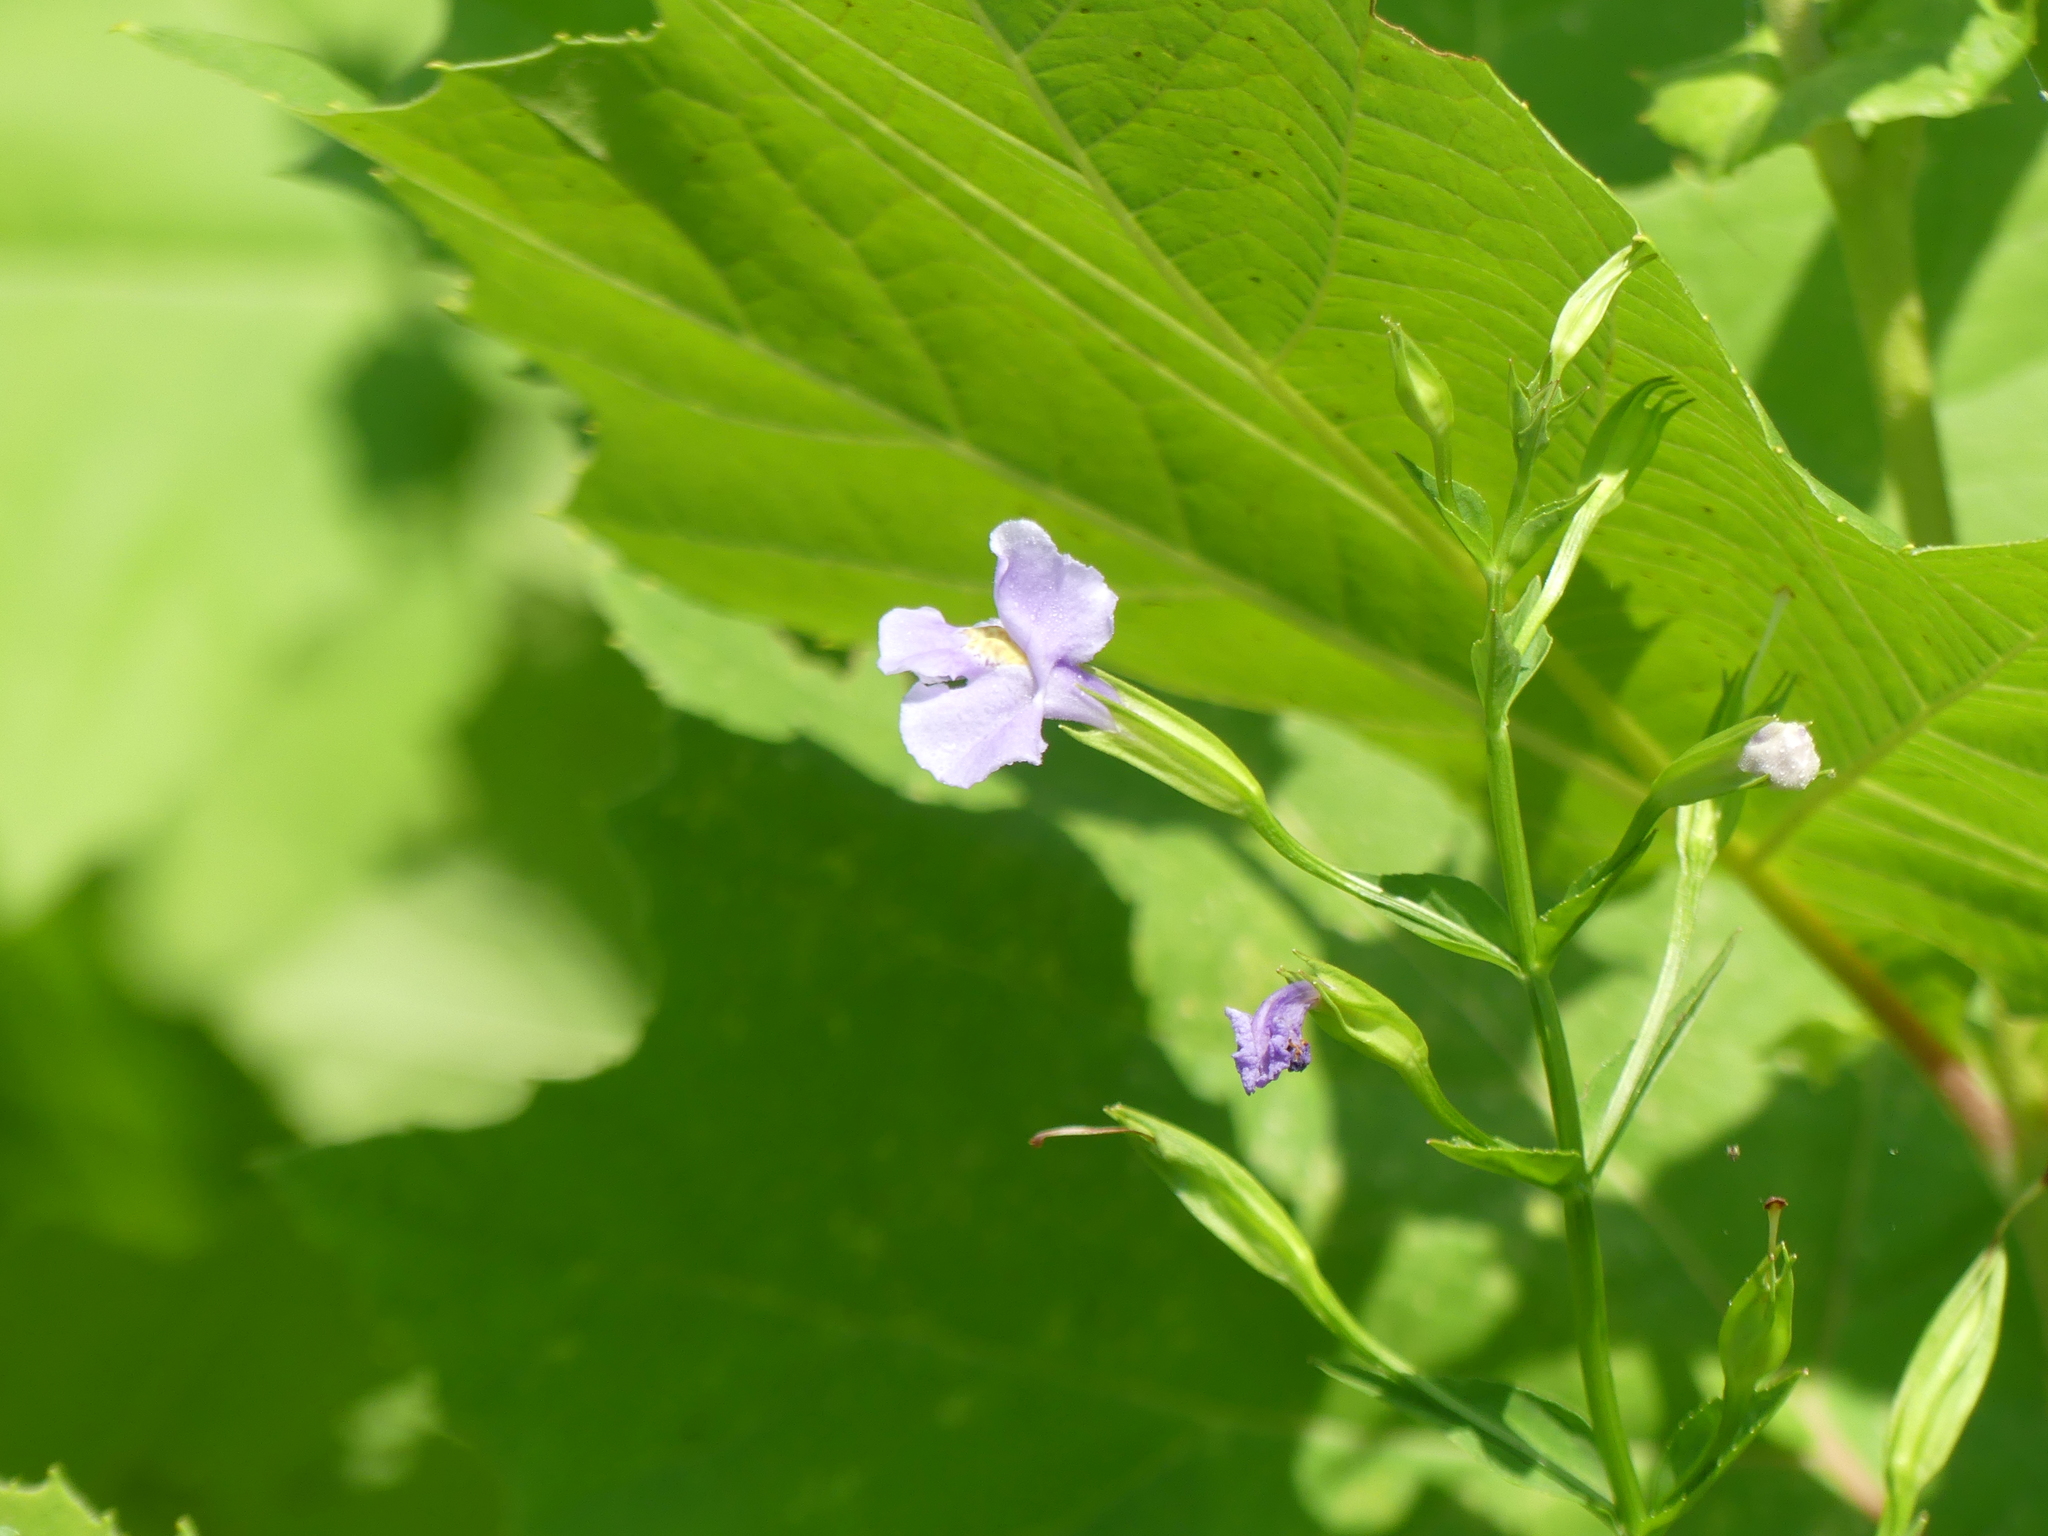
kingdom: Plantae
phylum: Tracheophyta
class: Magnoliopsida
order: Lamiales
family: Phrymaceae
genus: Mimulus
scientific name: Mimulus ringens
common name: Allegheny monkeyflower
